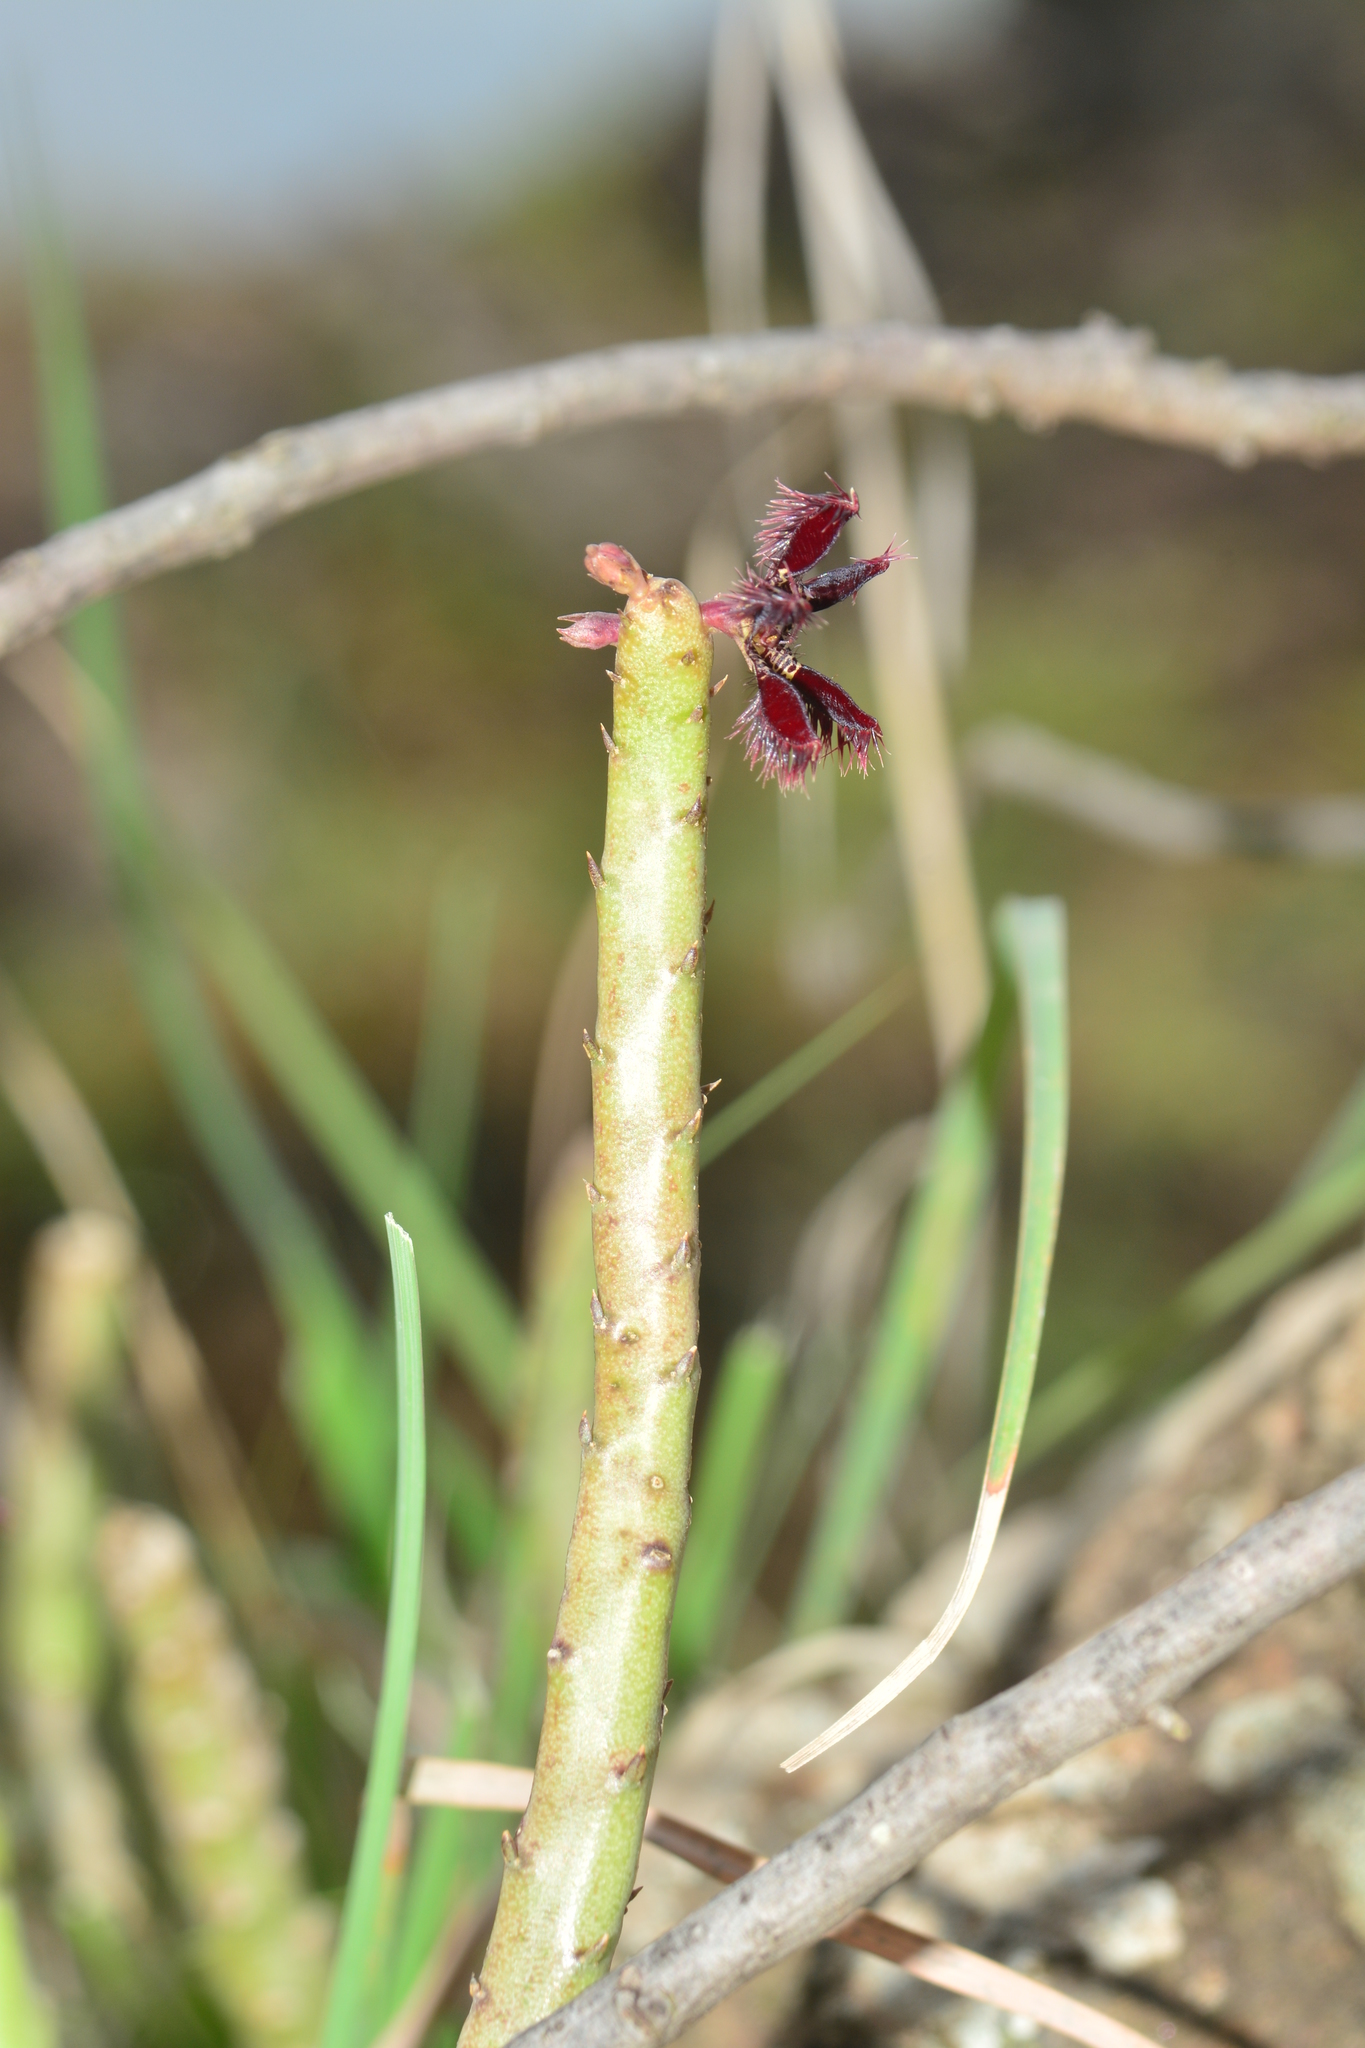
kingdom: Plantae
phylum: Tracheophyta
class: Magnoliopsida
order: Gentianales
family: Apocynaceae
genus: Ceropegia
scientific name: Ceropegia adscendens
